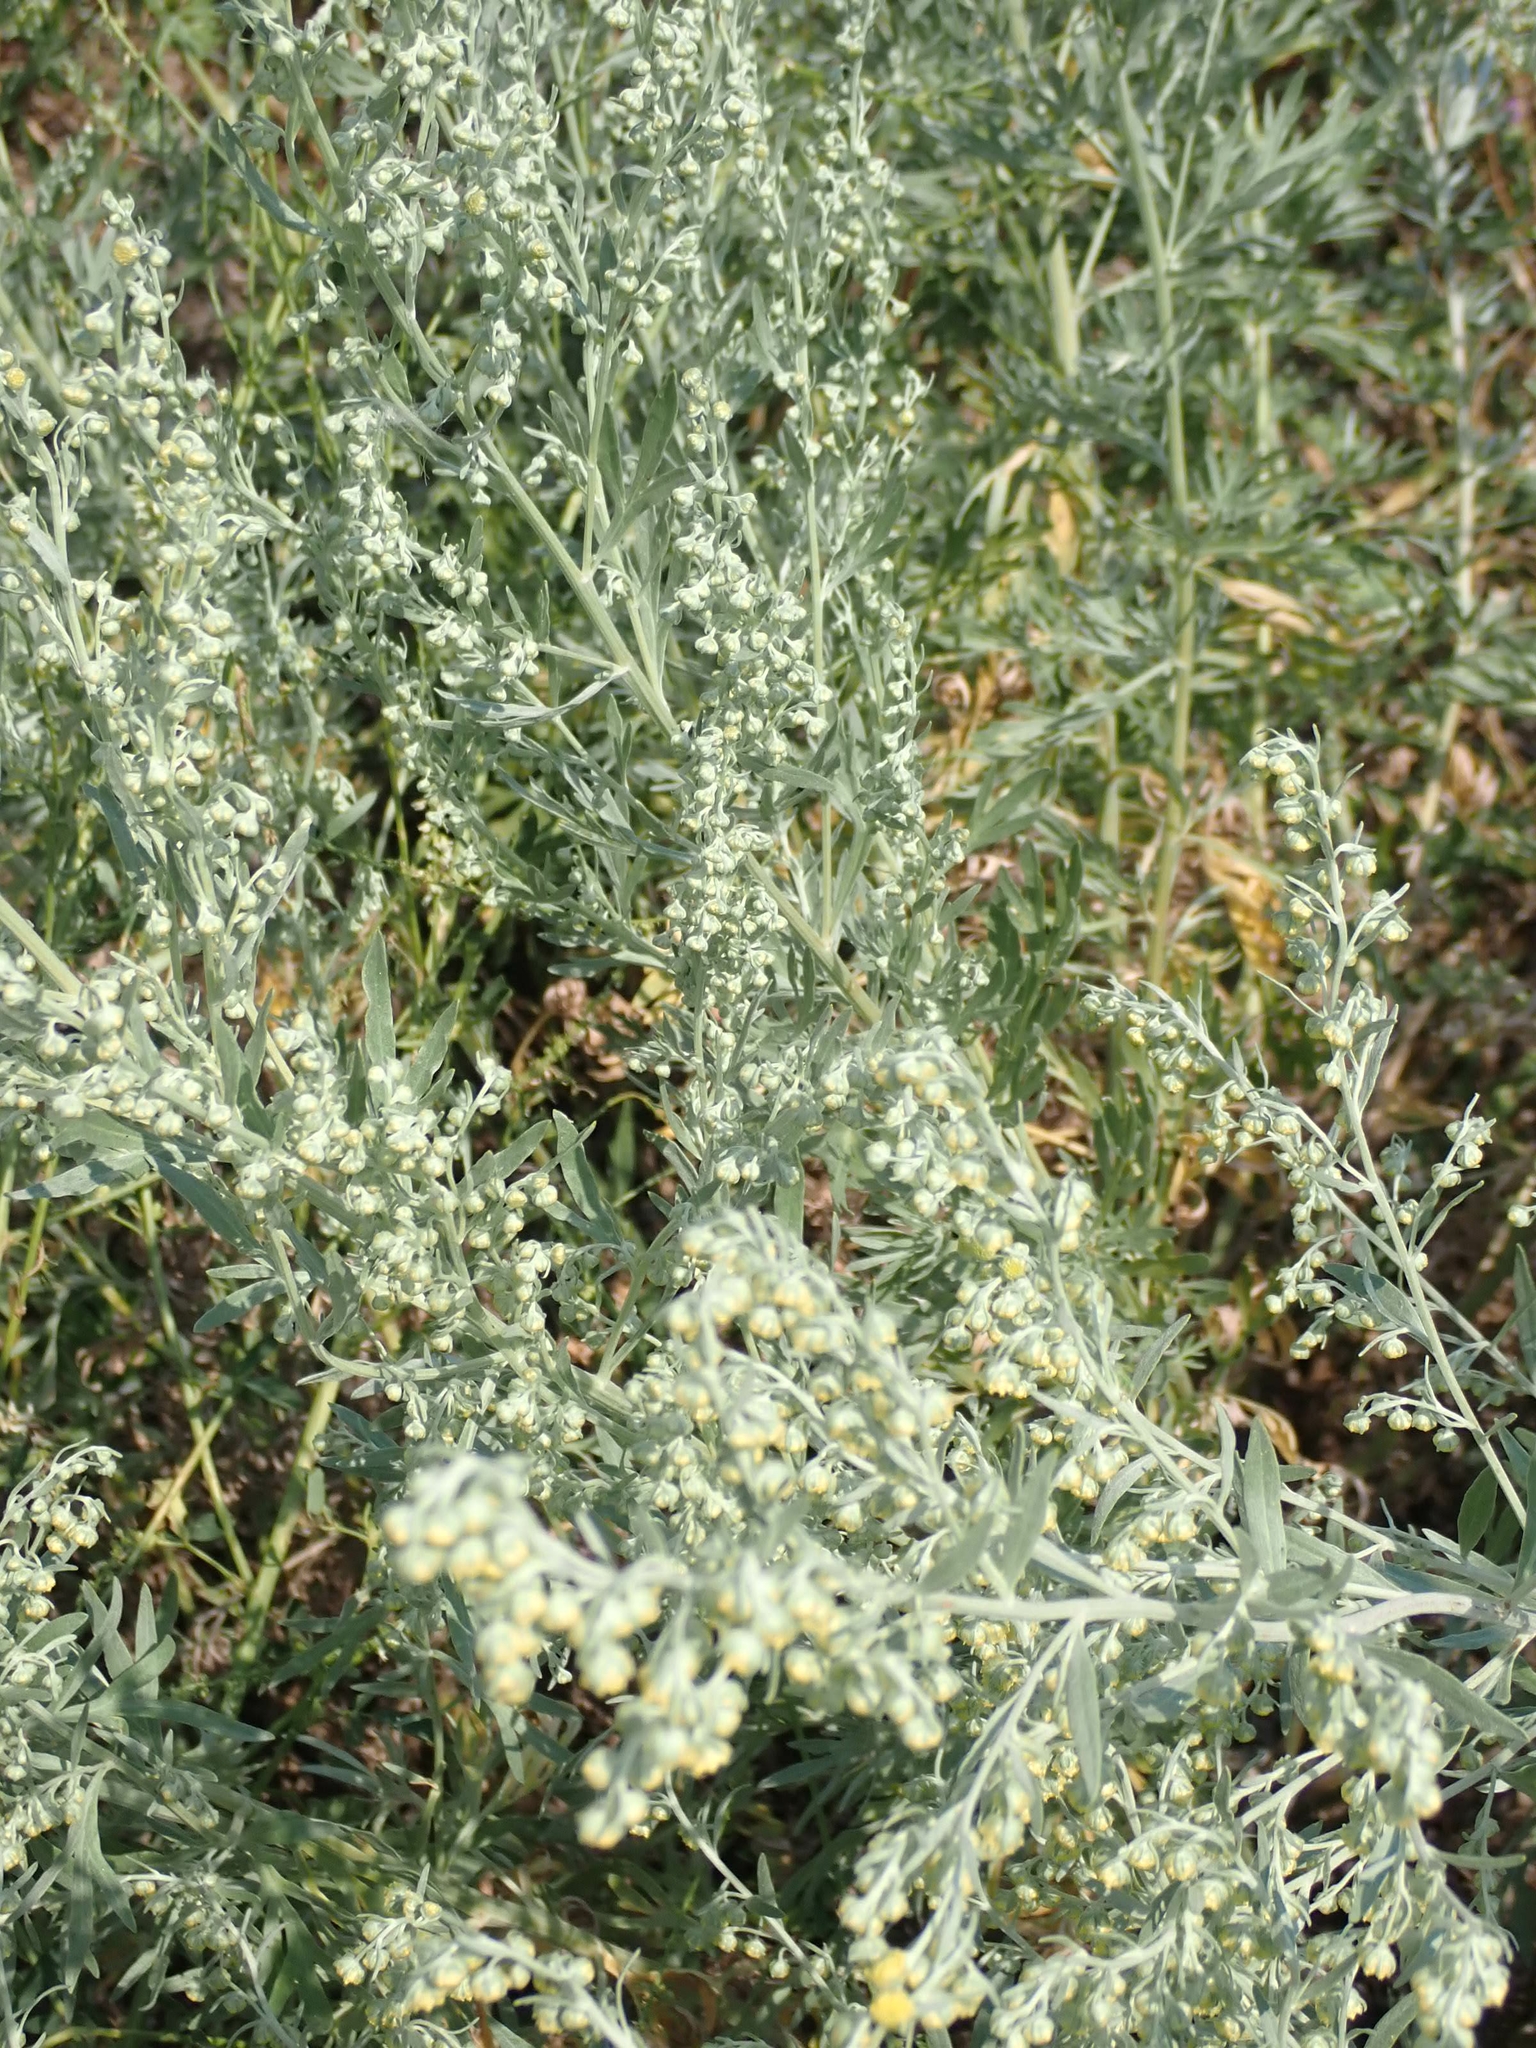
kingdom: Plantae
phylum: Tracheophyta
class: Magnoliopsida
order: Asterales
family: Asteraceae
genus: Artemisia
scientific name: Artemisia absinthium
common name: Wormwood
